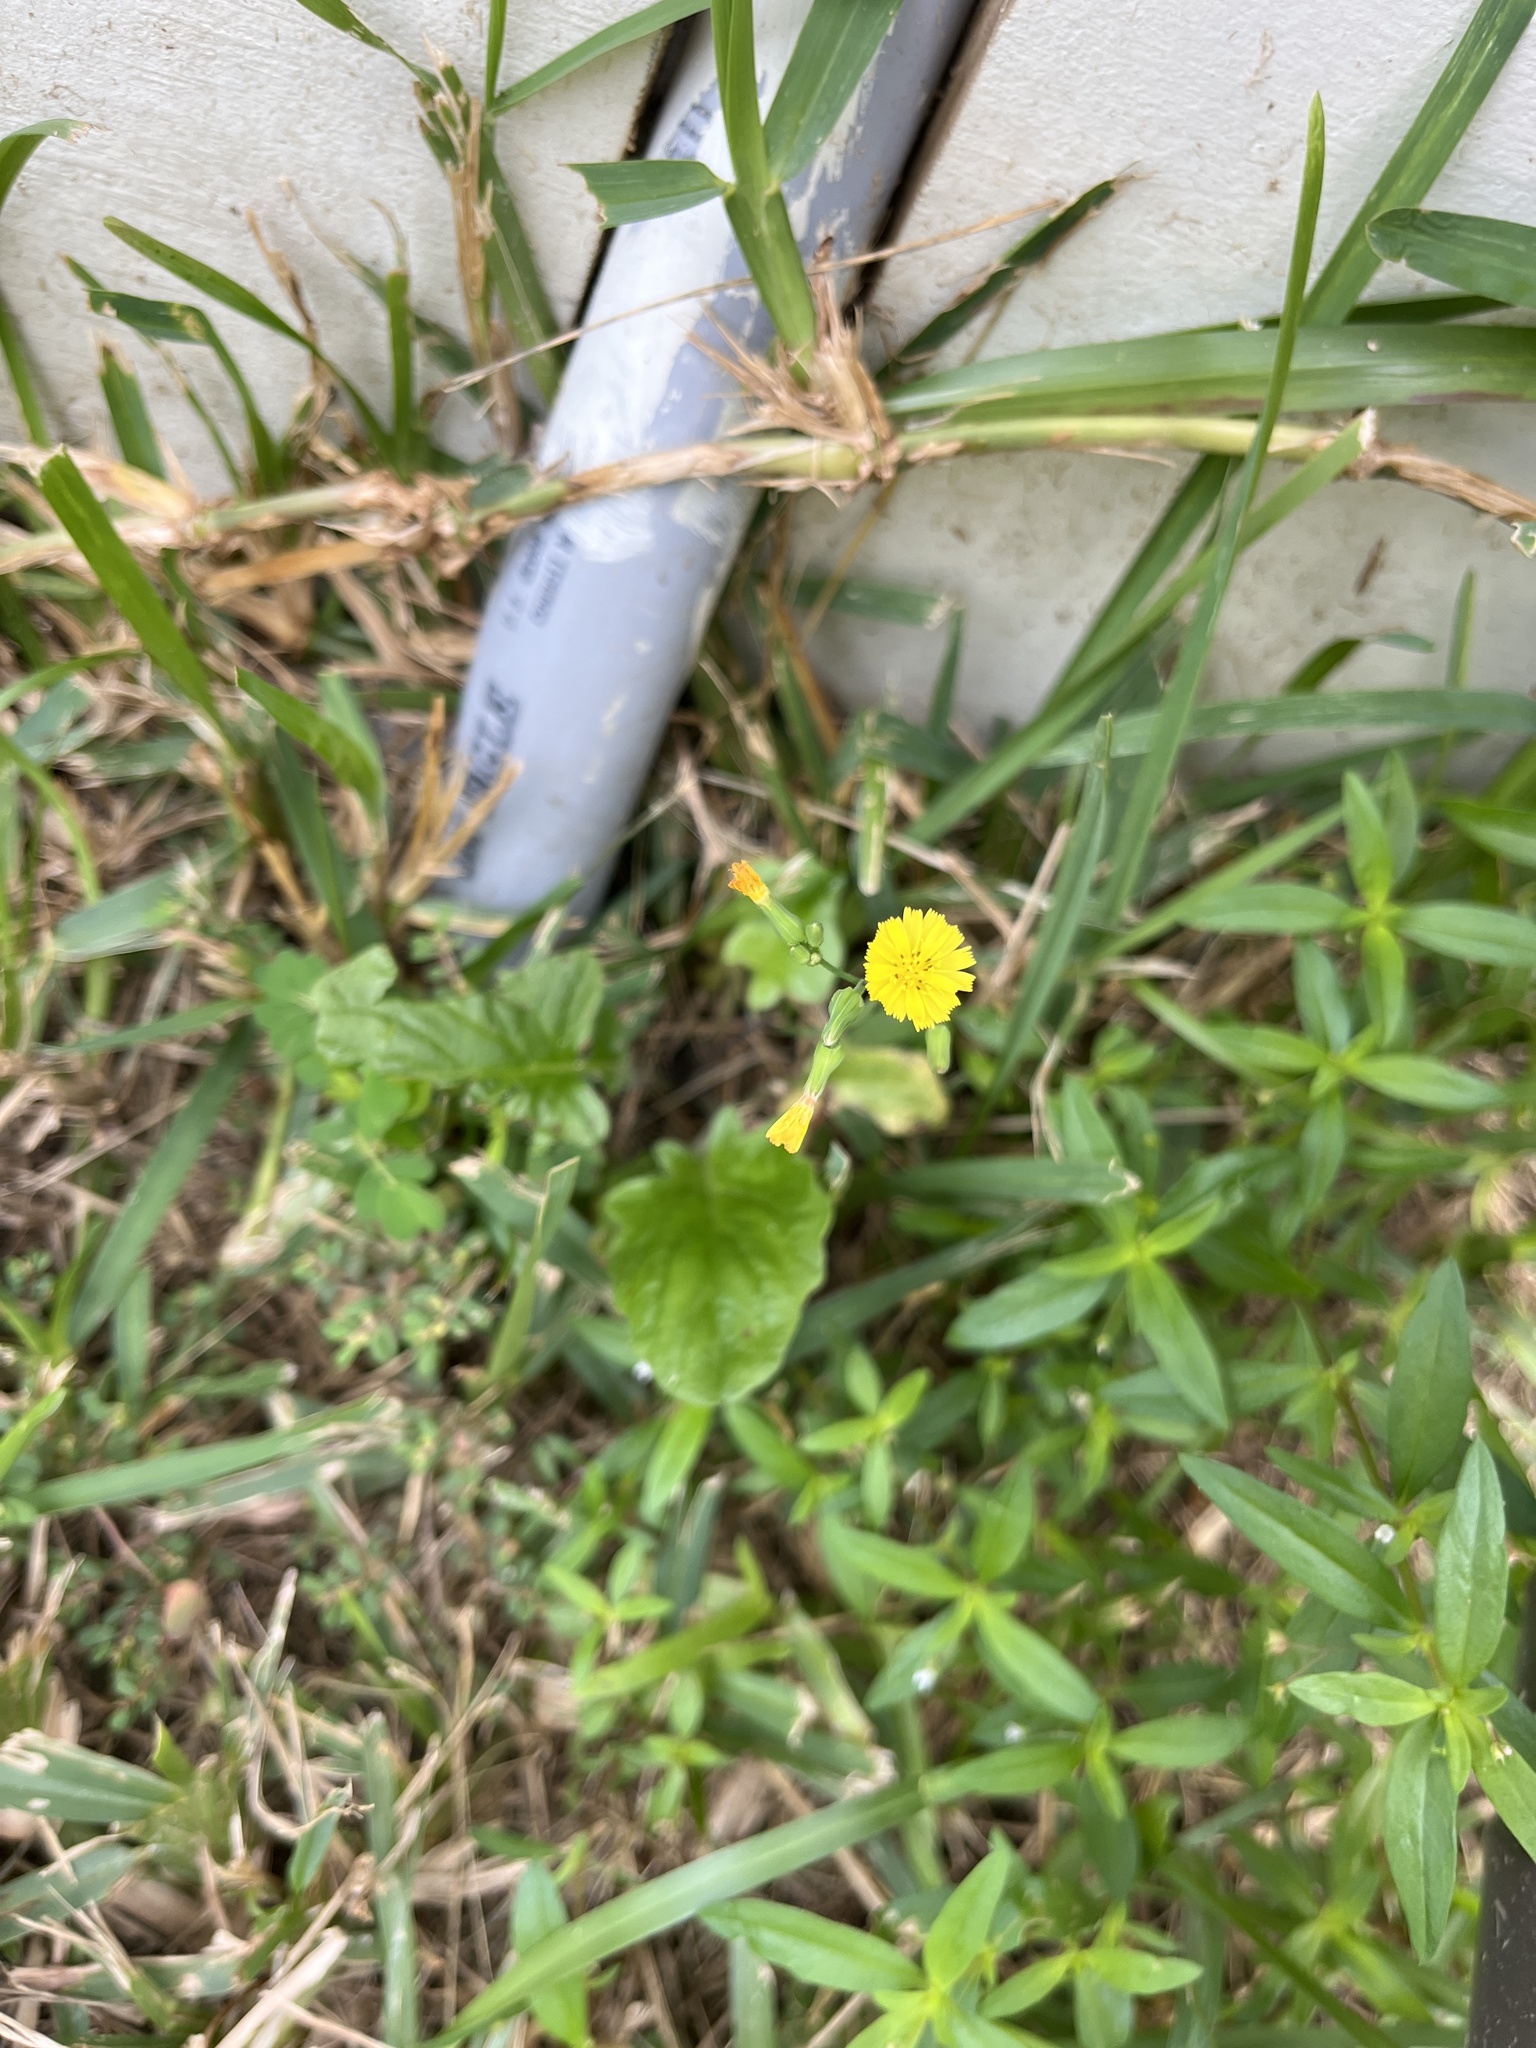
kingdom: Plantae
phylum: Tracheophyta
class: Magnoliopsida
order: Asterales
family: Asteraceae
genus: Youngia
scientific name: Youngia japonica
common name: Oriental false hawksbeard
